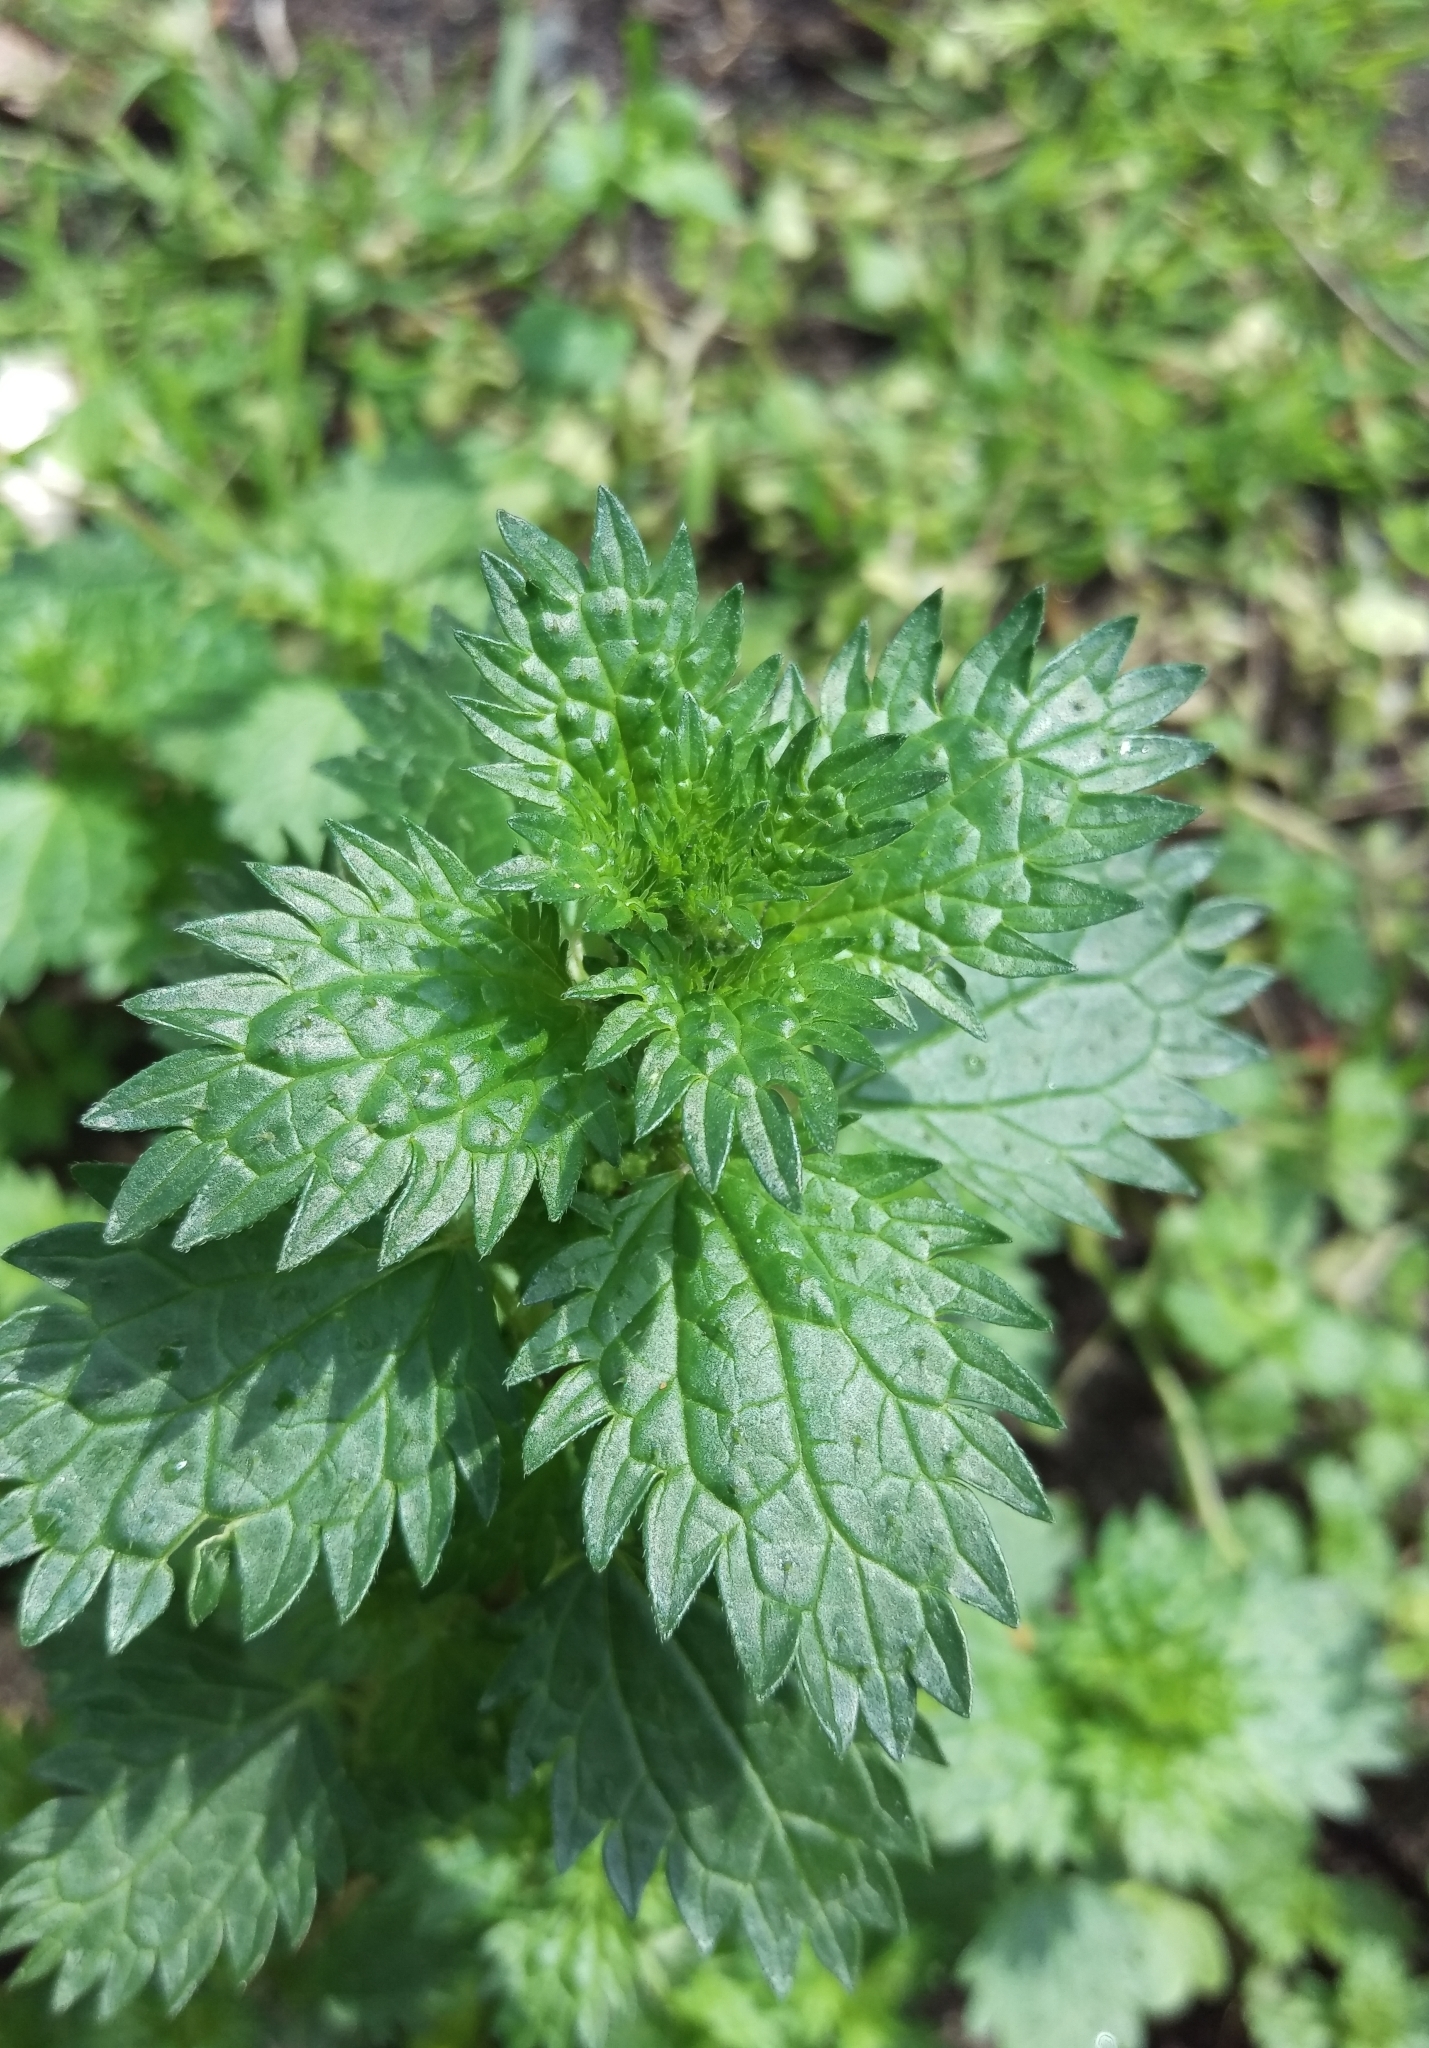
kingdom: Plantae
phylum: Tracheophyta
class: Magnoliopsida
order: Rosales
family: Urticaceae
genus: Urtica
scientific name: Urtica urens
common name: Dwarf nettle
